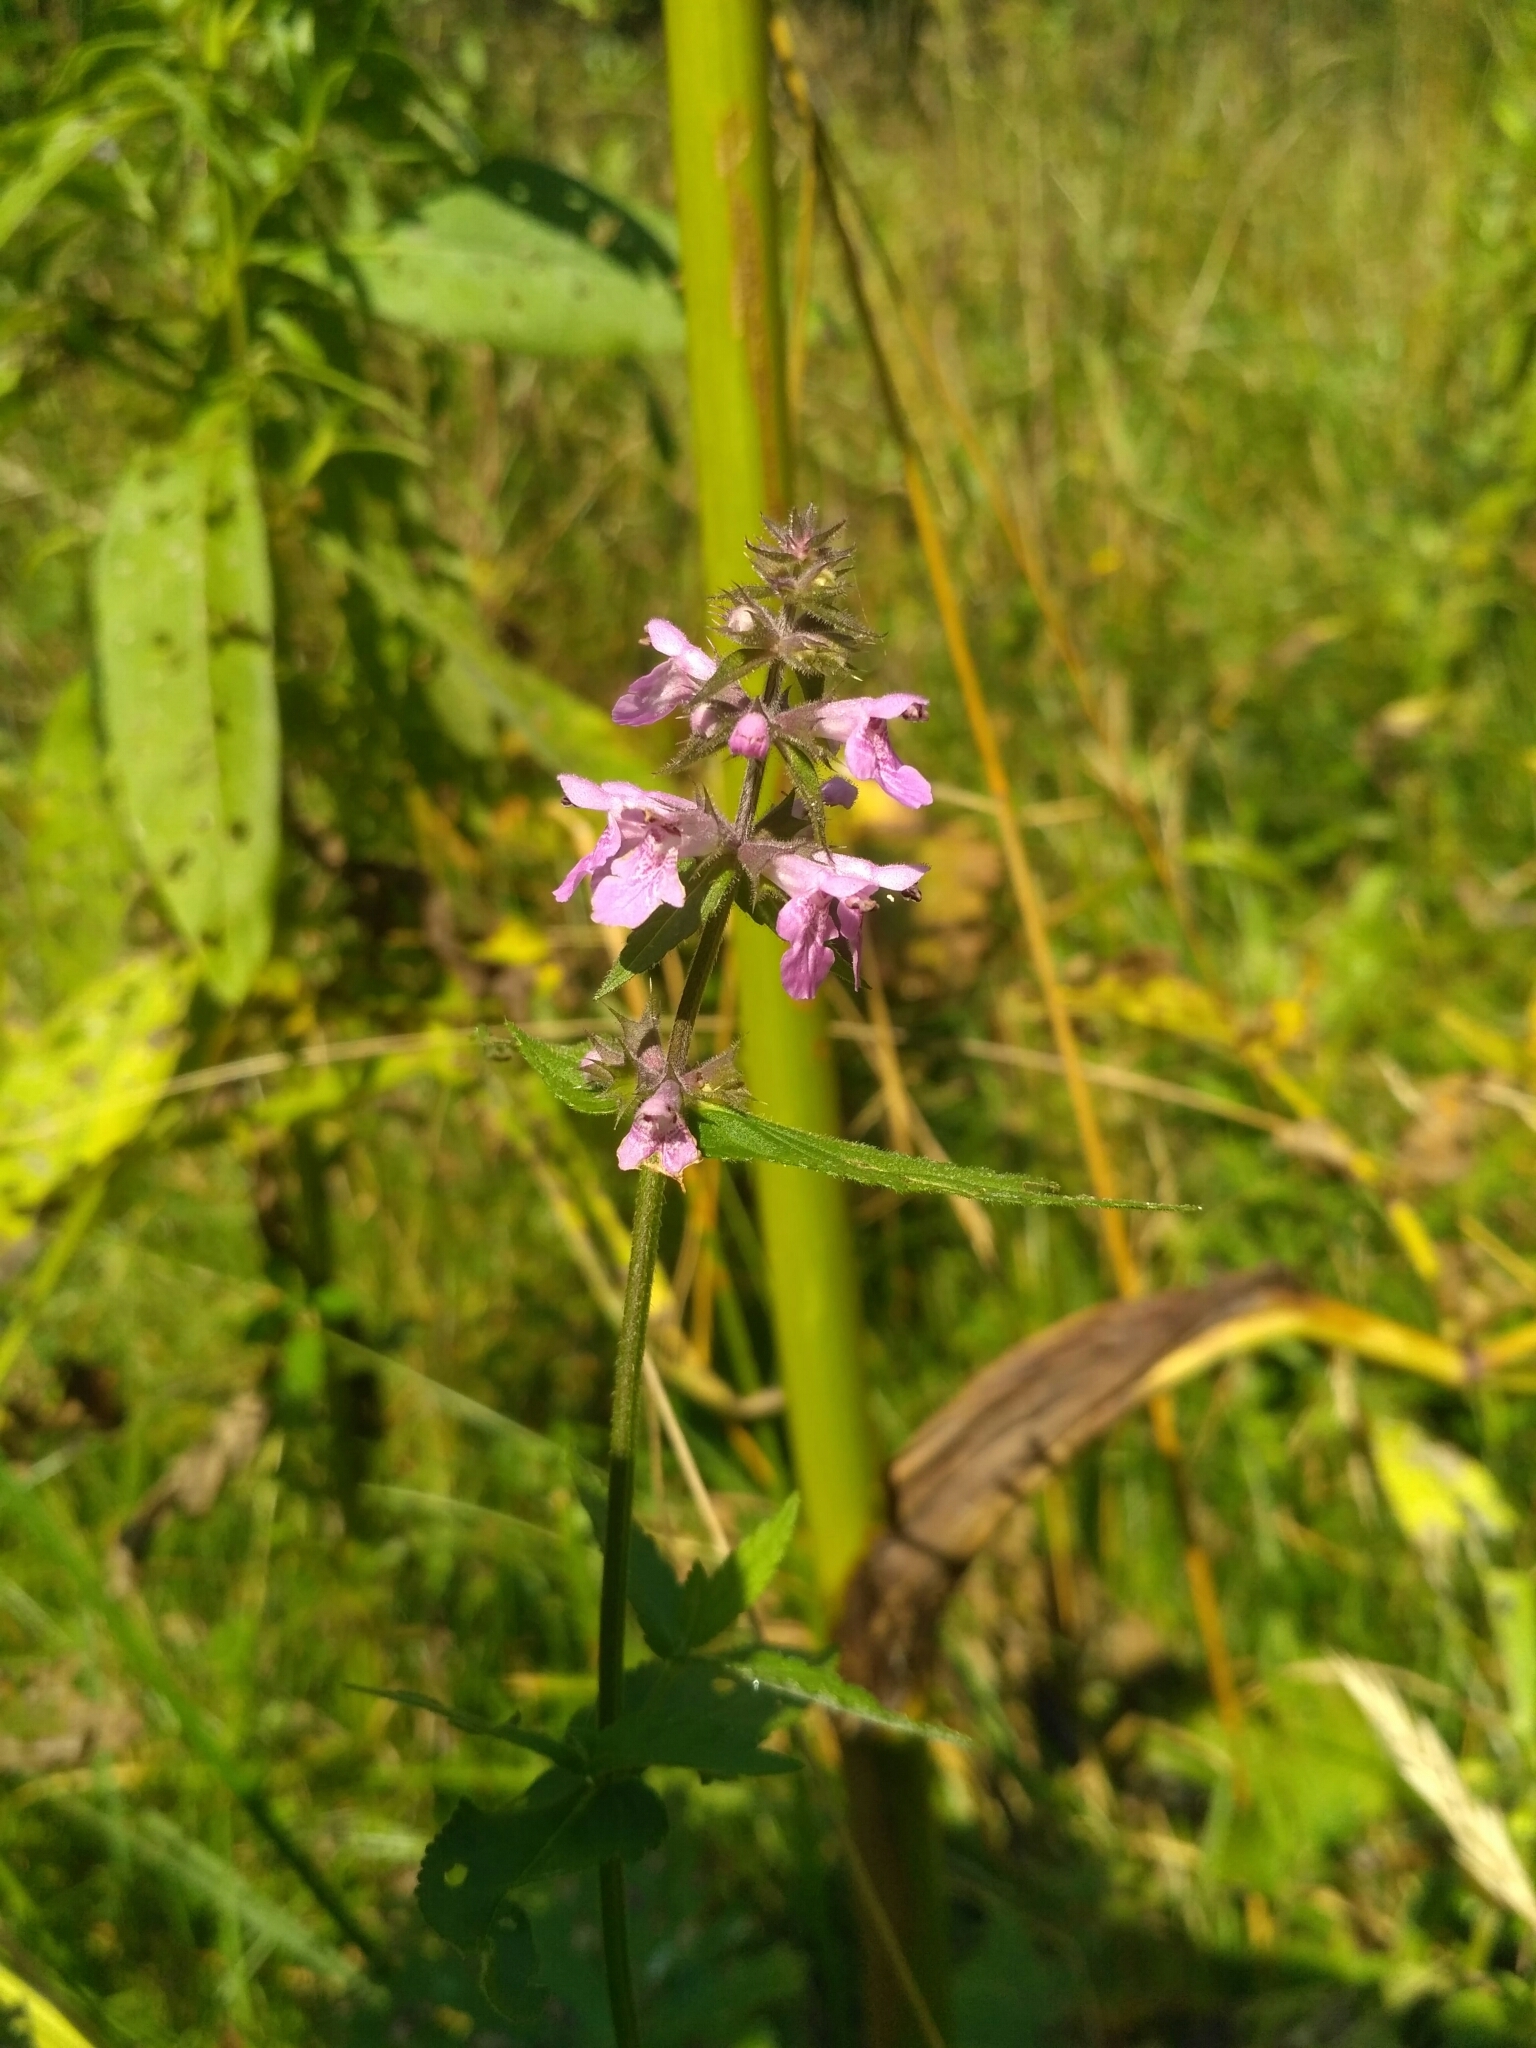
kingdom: Plantae
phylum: Tracheophyta
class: Magnoliopsida
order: Lamiales
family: Lamiaceae
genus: Stachys
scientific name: Stachys palustris
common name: Marsh woundwort
